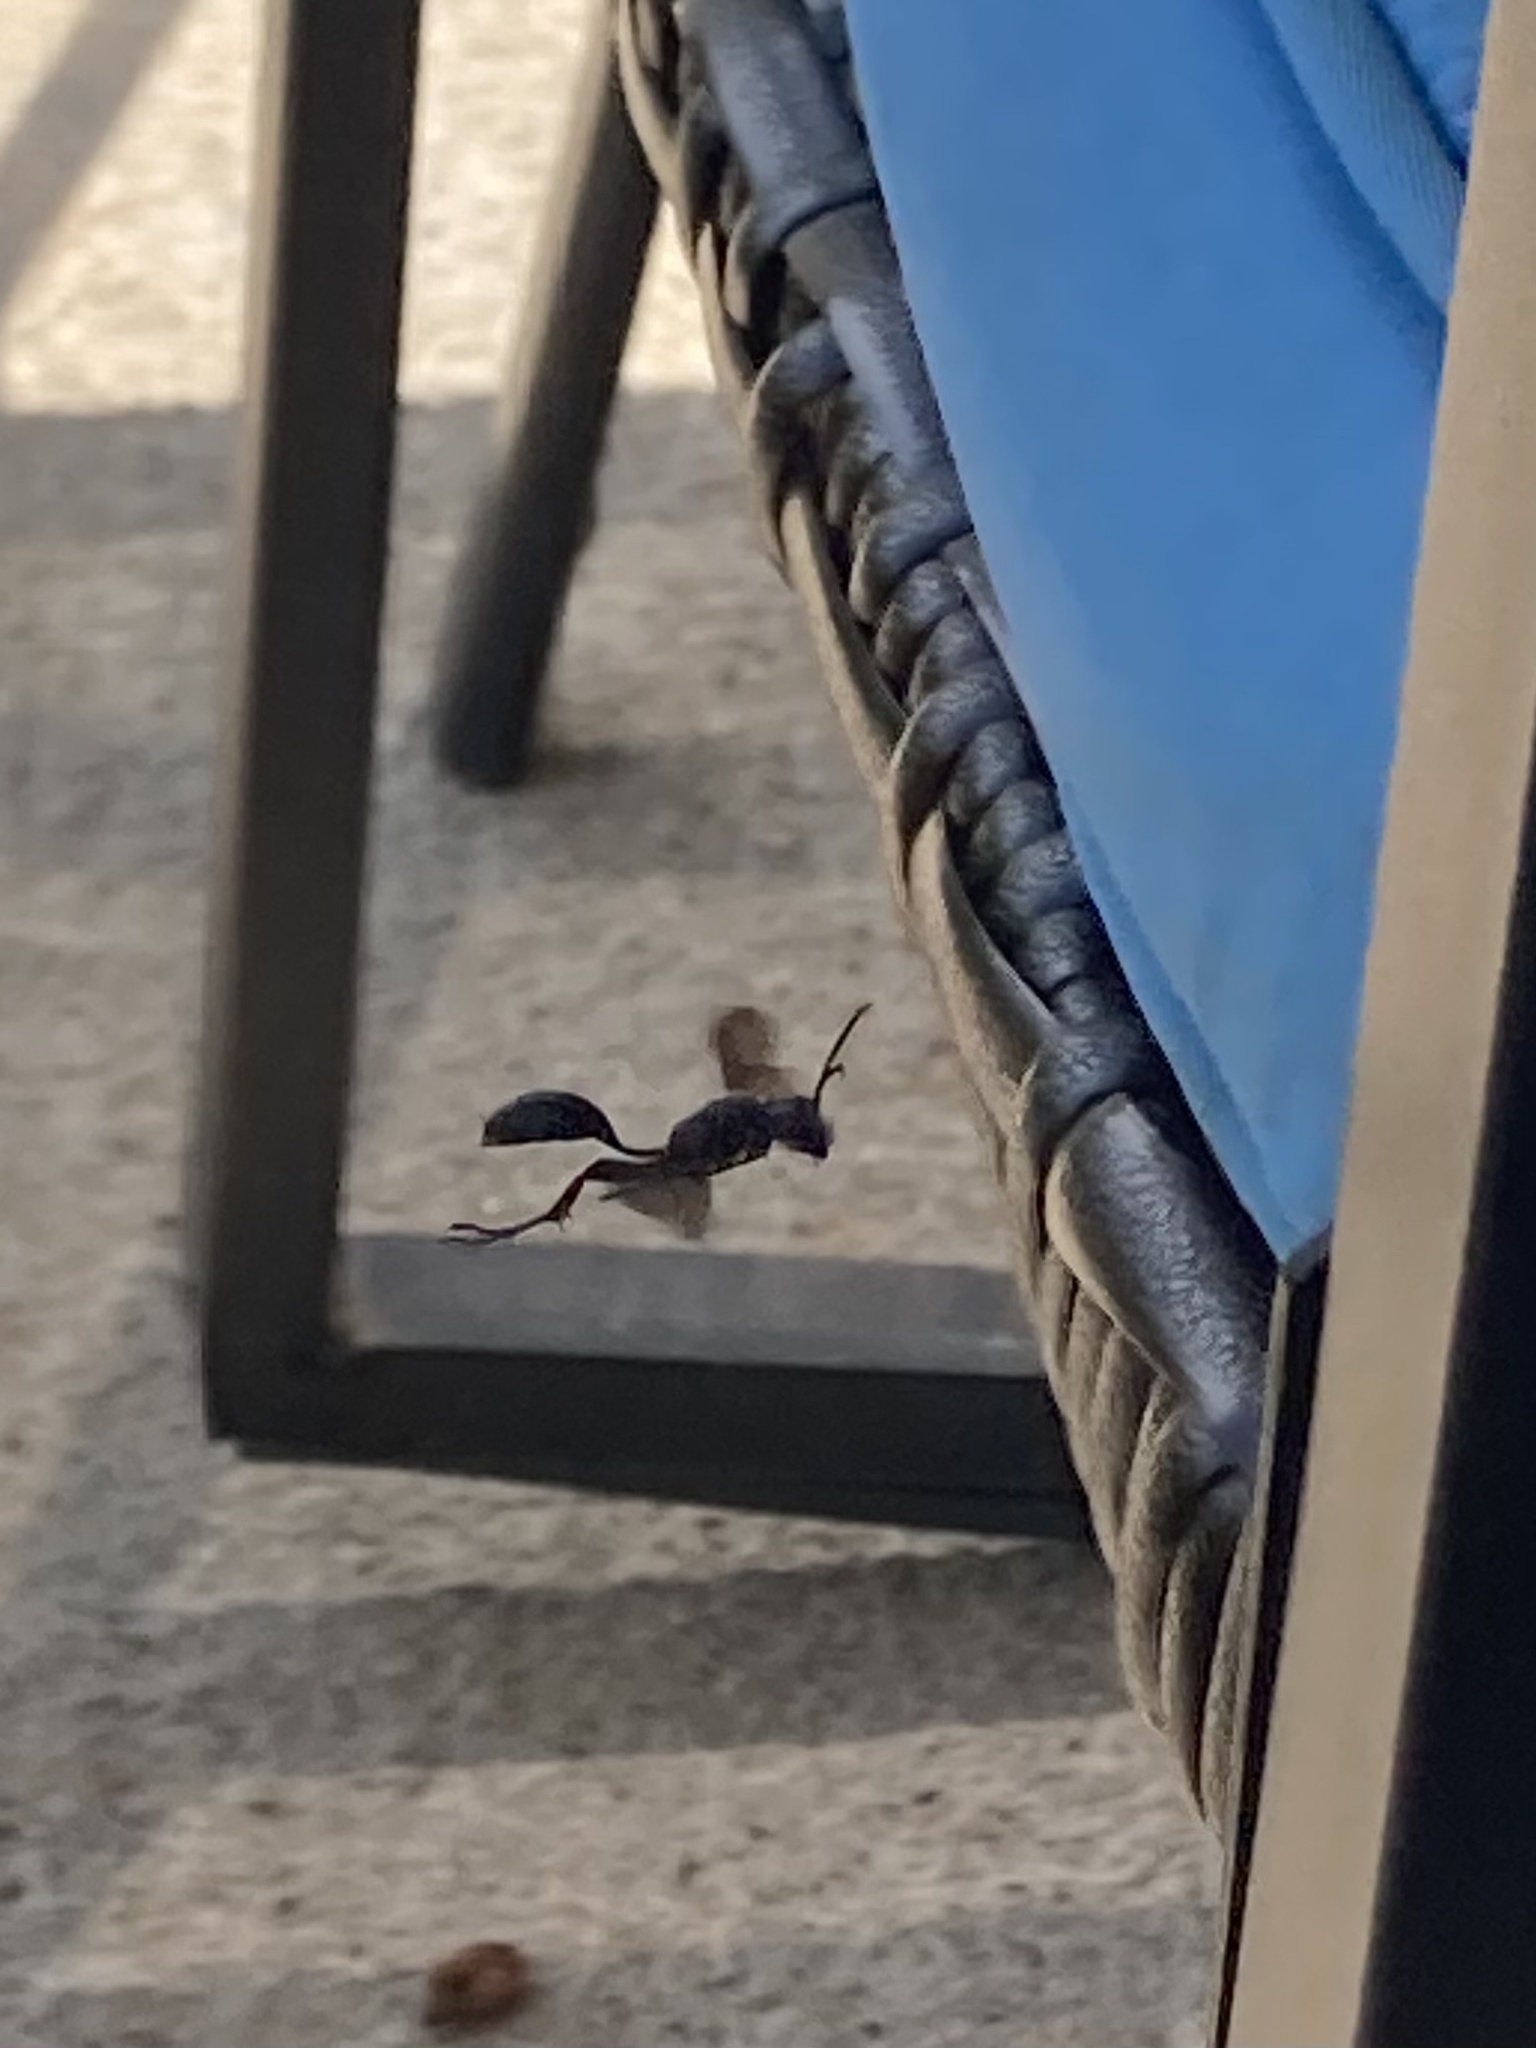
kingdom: Animalia
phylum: Arthropoda
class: Insecta
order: Hymenoptera
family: Sphecidae
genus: Isodontia
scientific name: Isodontia
